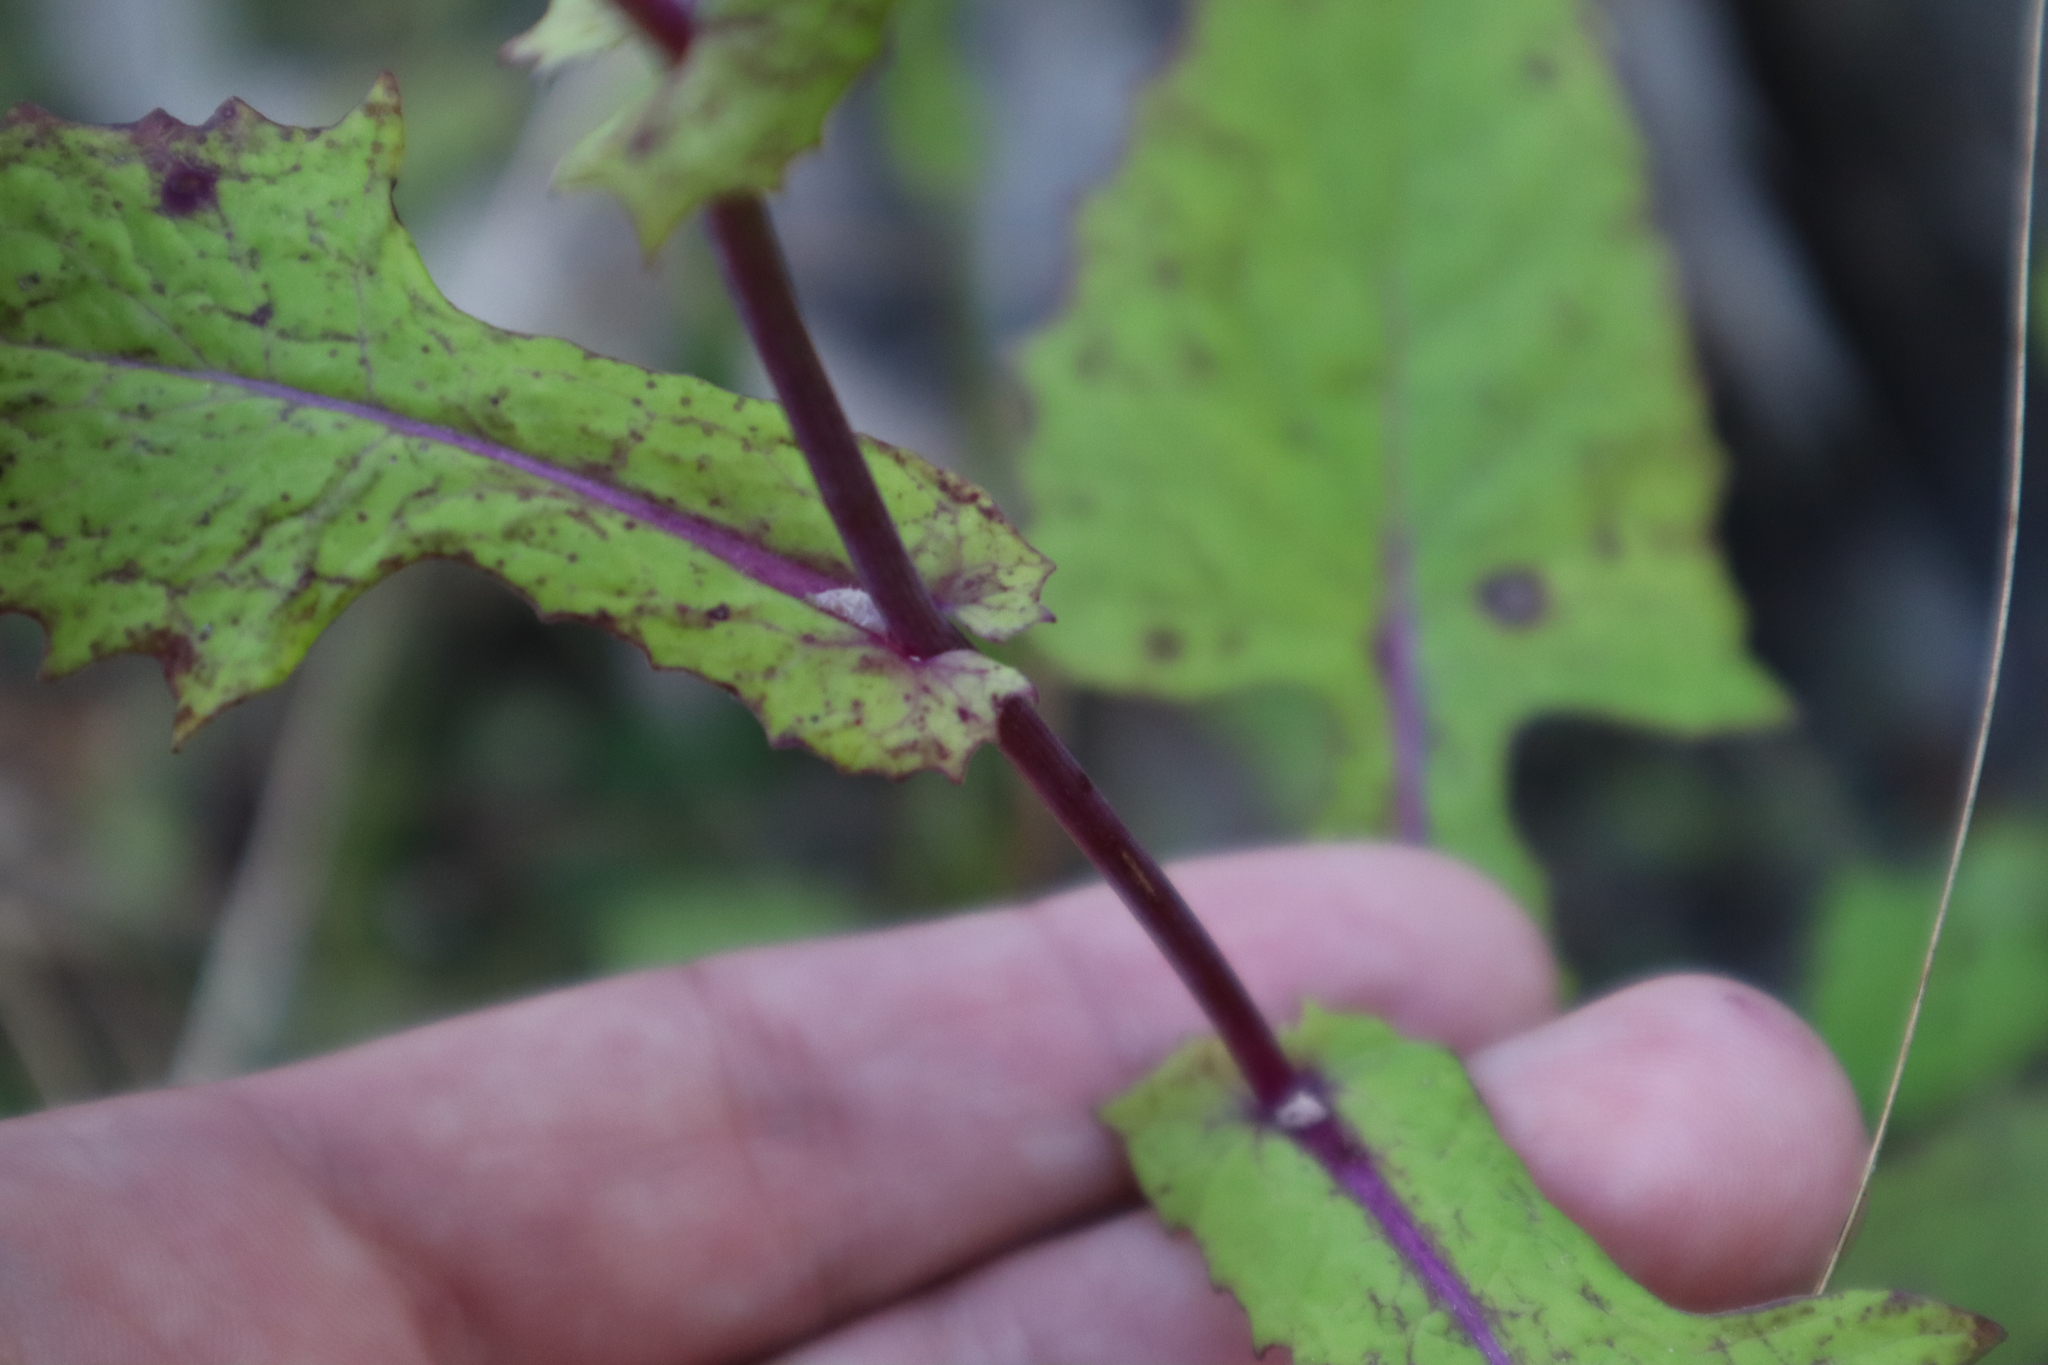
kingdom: Plantae
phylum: Tracheophyta
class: Magnoliopsida
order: Asterales
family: Asteraceae
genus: Emilia
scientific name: Emilia sonchifolia
